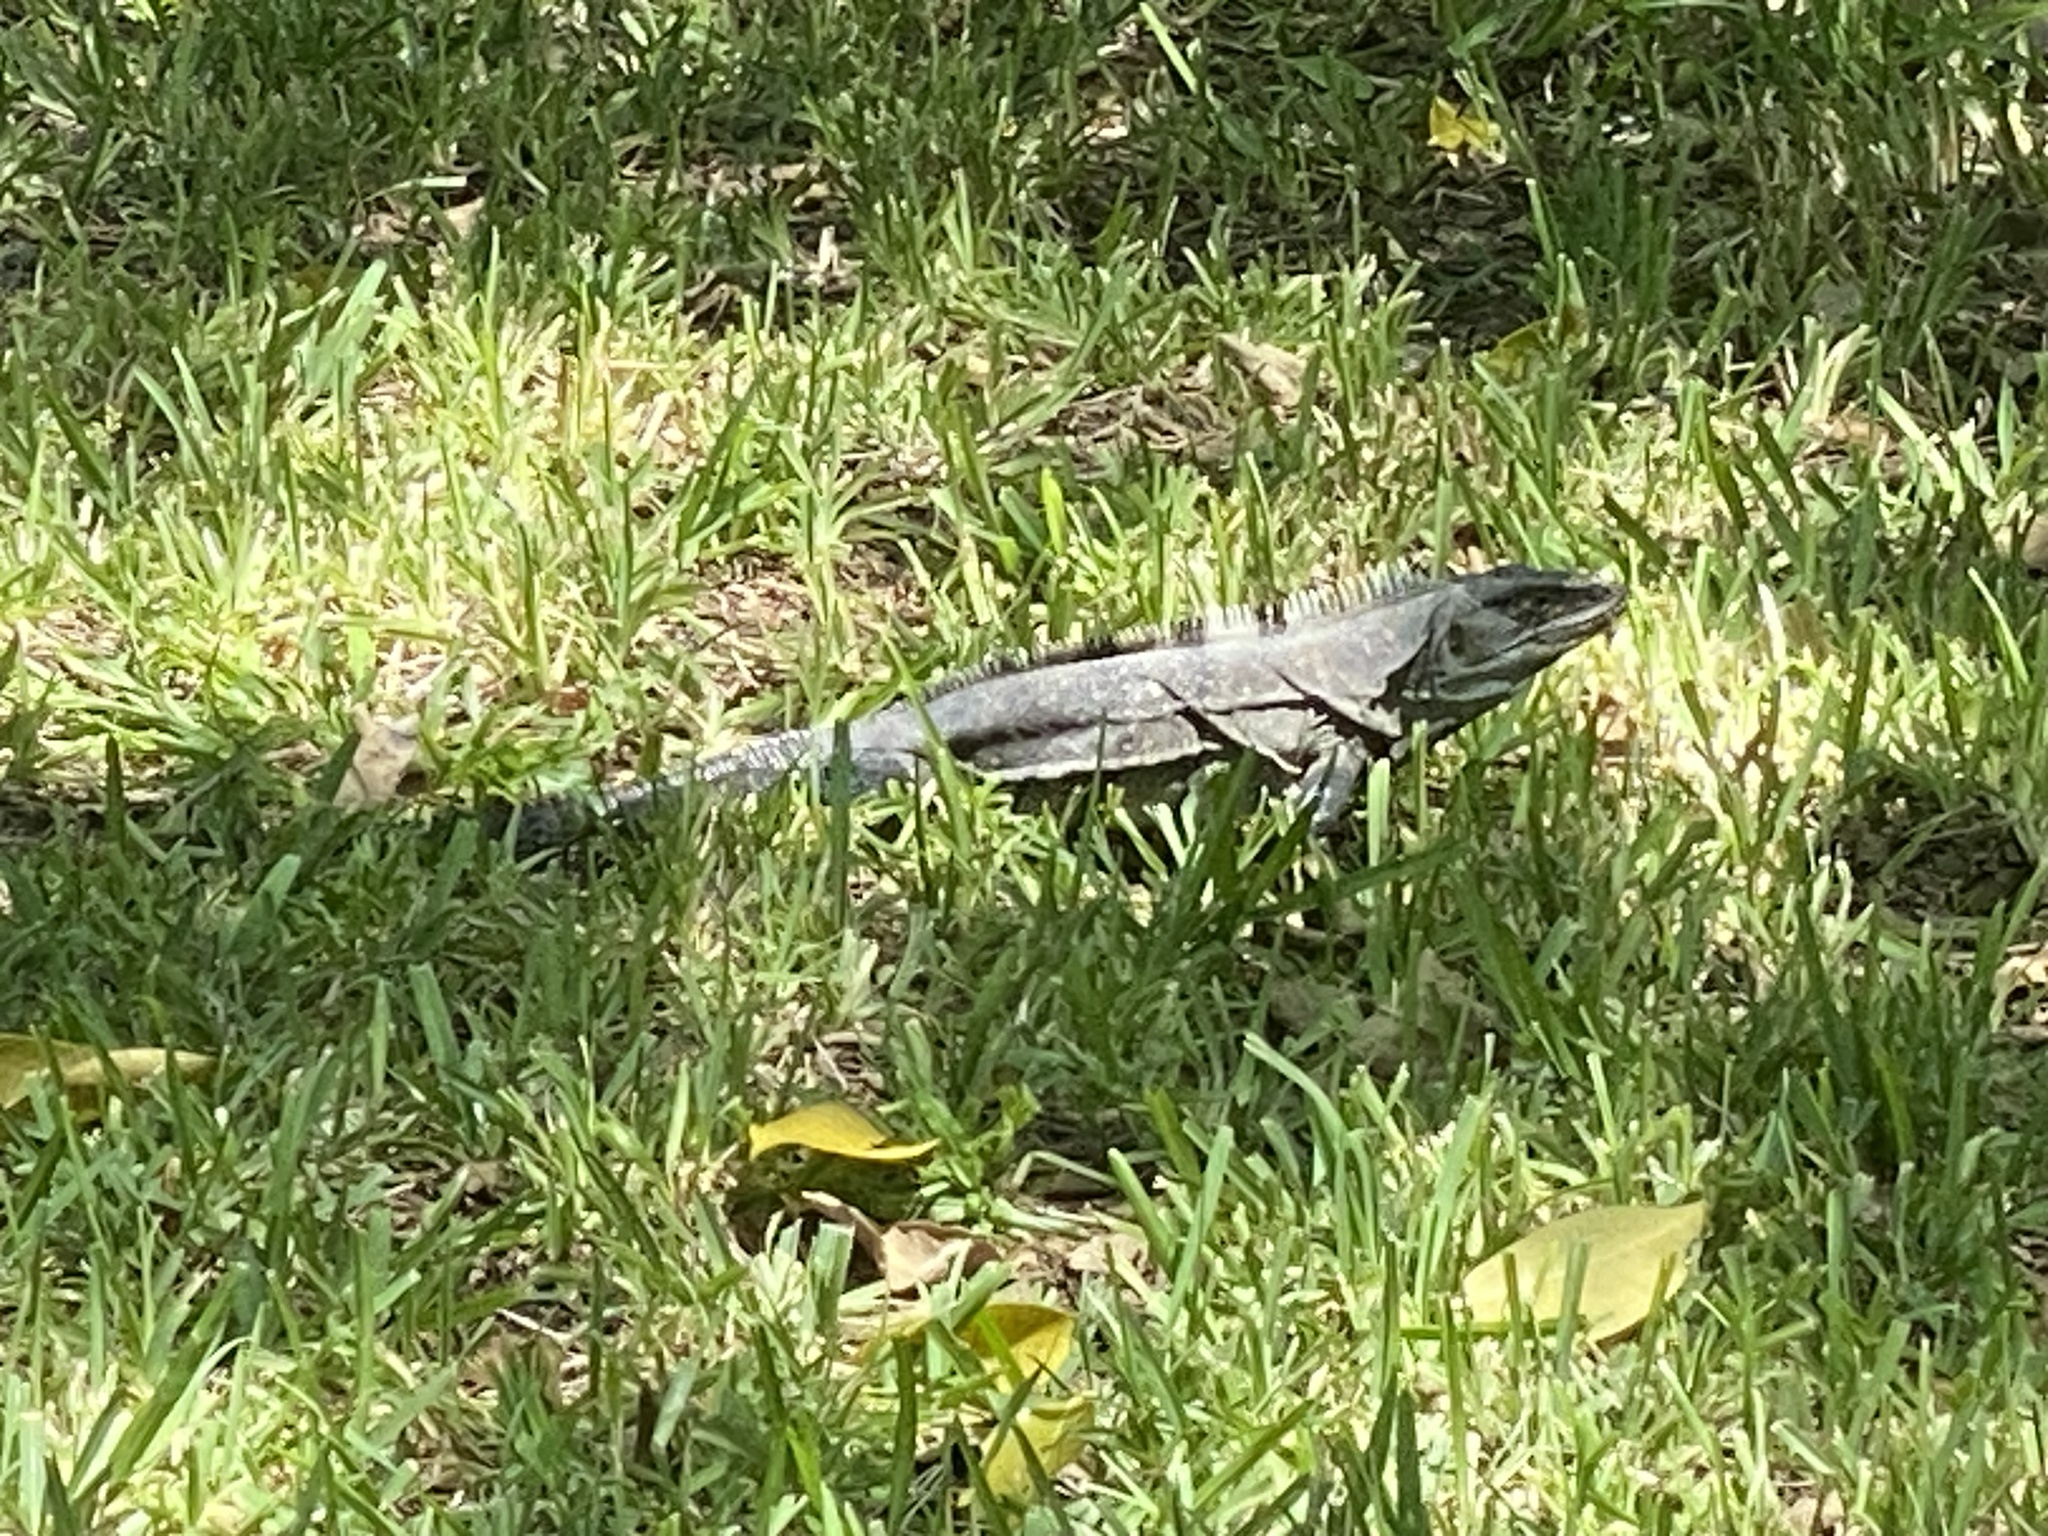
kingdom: Animalia
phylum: Chordata
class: Squamata
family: Iguanidae
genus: Ctenosaura
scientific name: Ctenosaura similis
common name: Black spiny-tailed iguana
